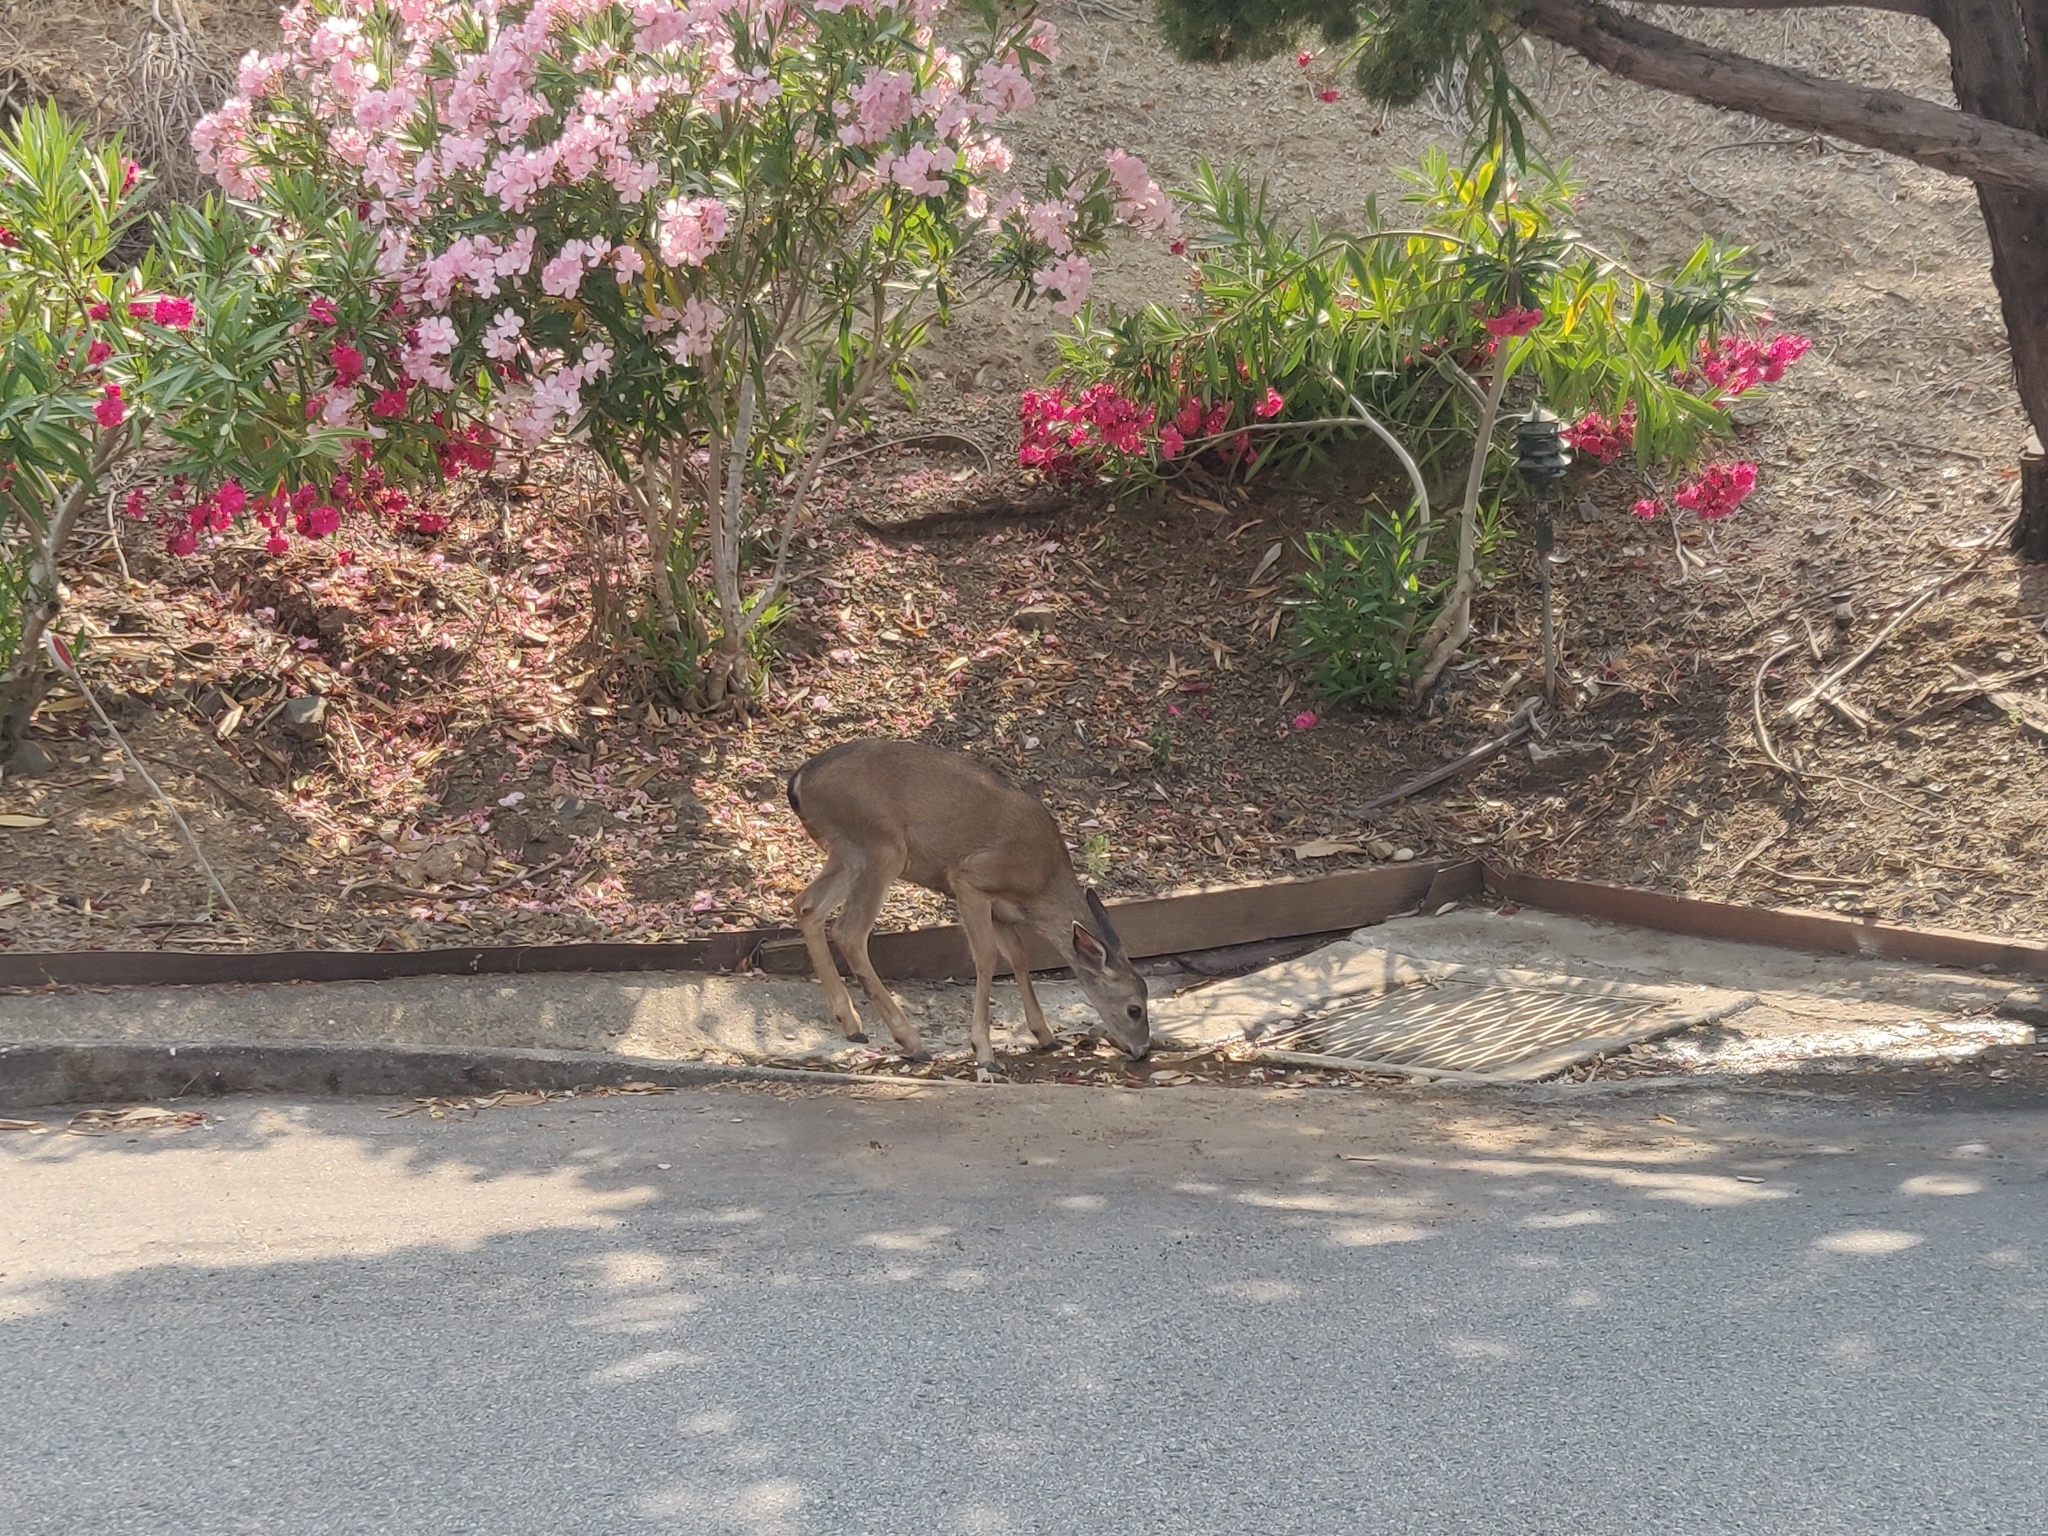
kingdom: Animalia
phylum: Chordata
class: Mammalia
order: Artiodactyla
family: Cervidae
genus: Odocoileus
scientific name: Odocoileus hemionus
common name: Mule deer
